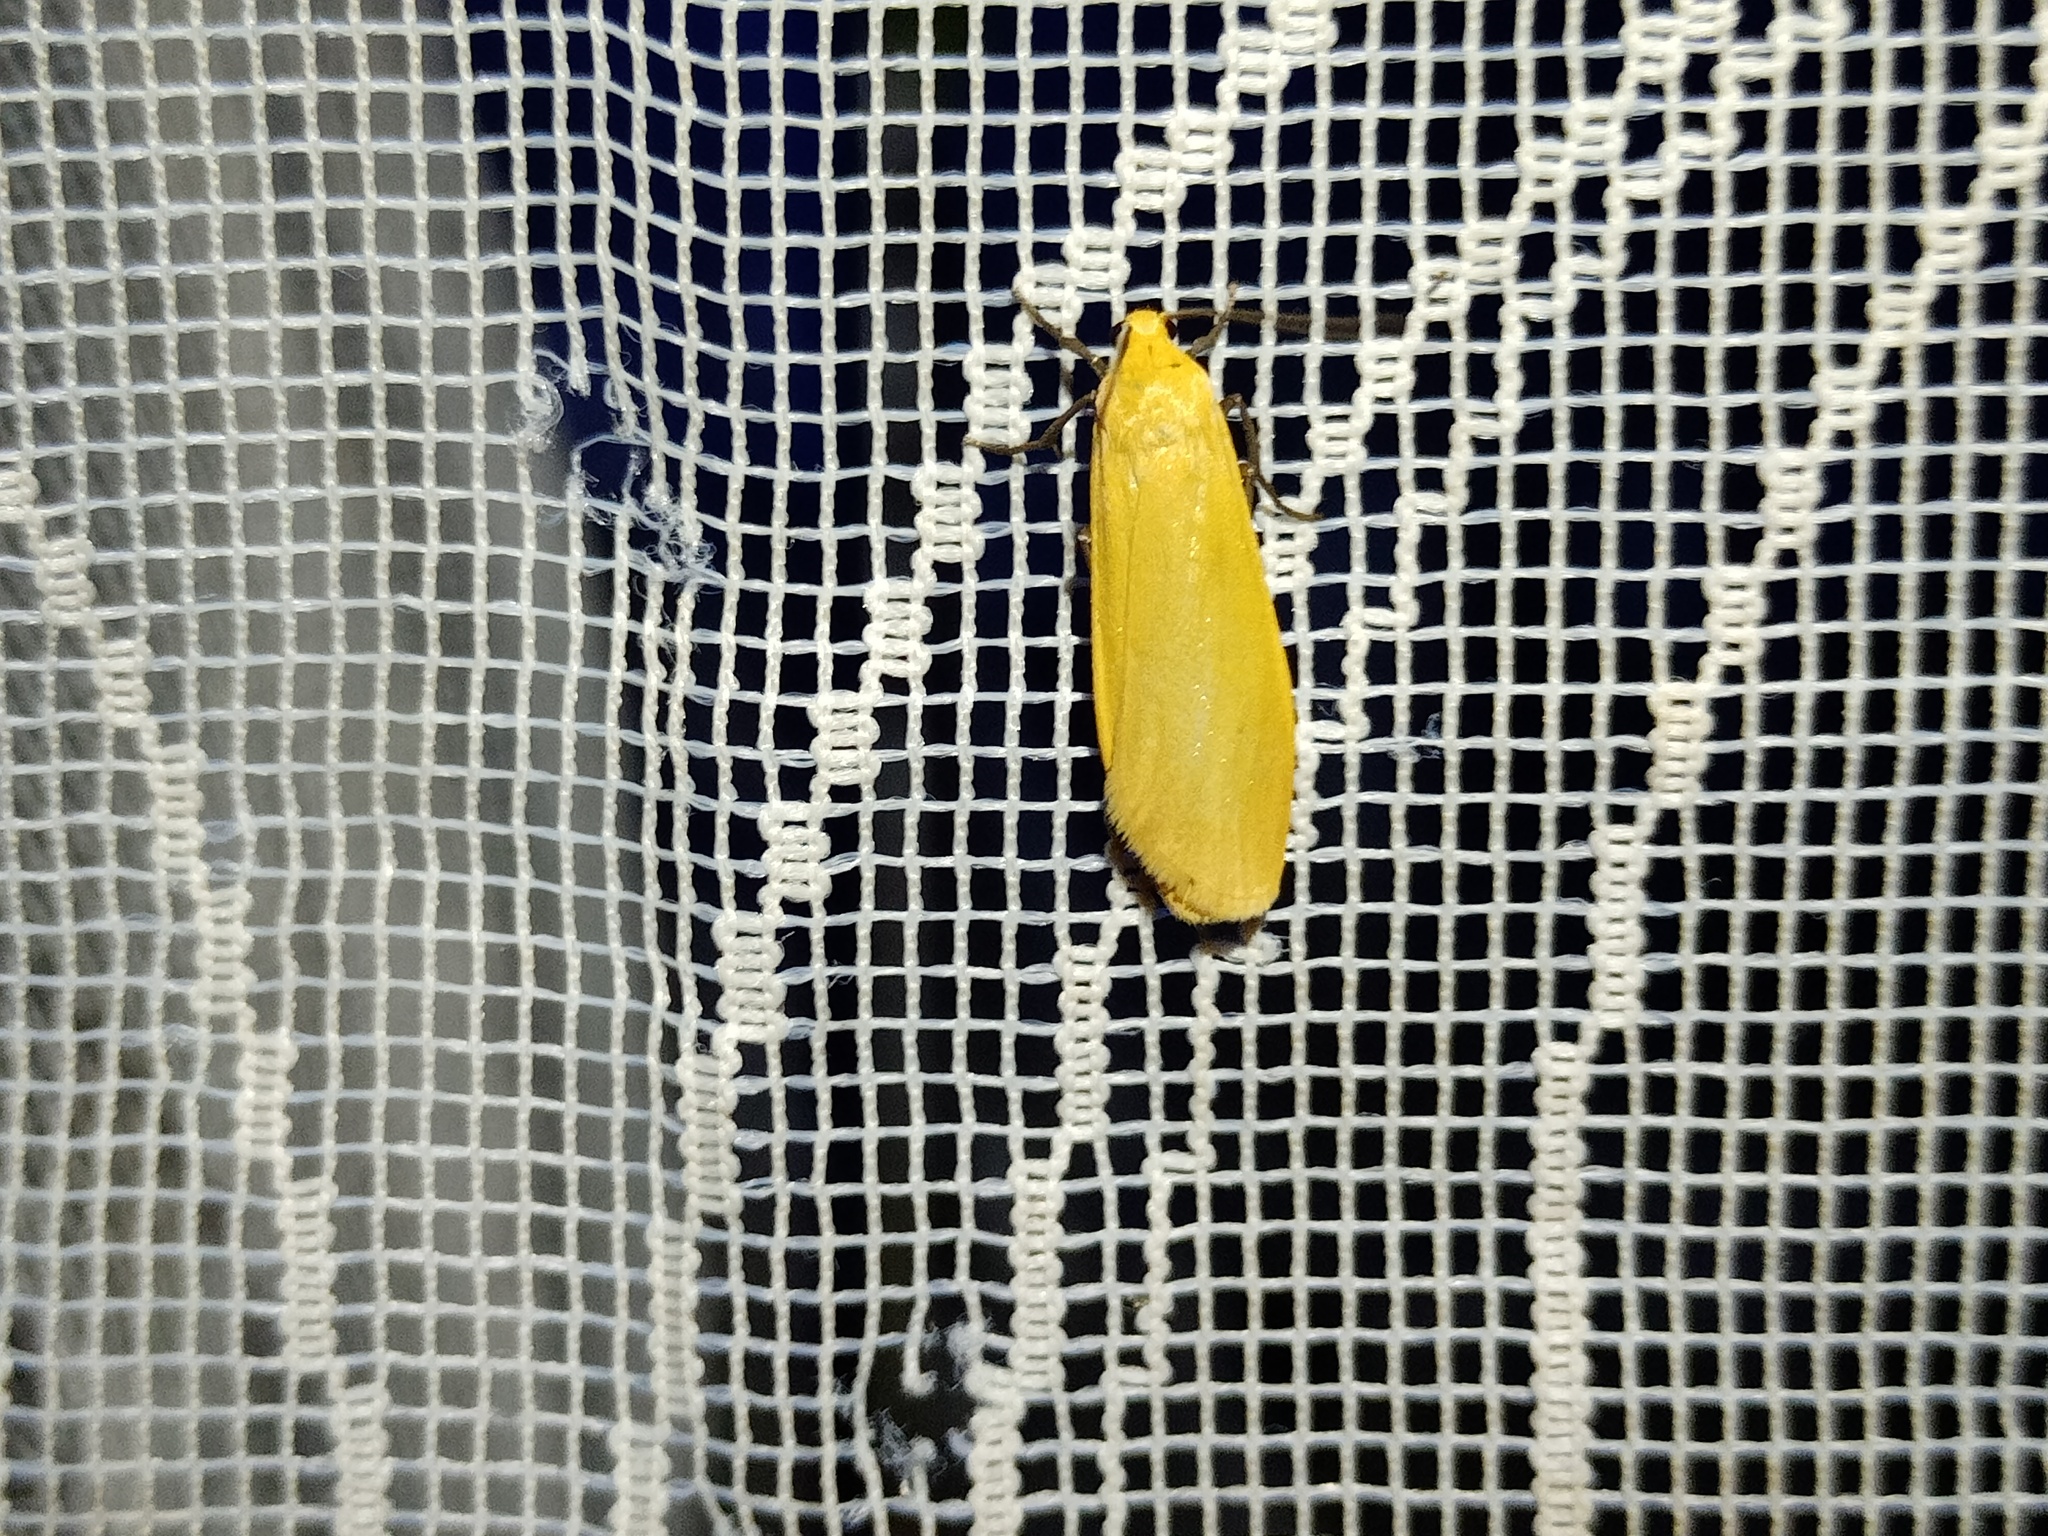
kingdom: Animalia
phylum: Arthropoda
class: Insecta
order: Lepidoptera
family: Erebidae
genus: Wittia
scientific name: Wittia sororcula
